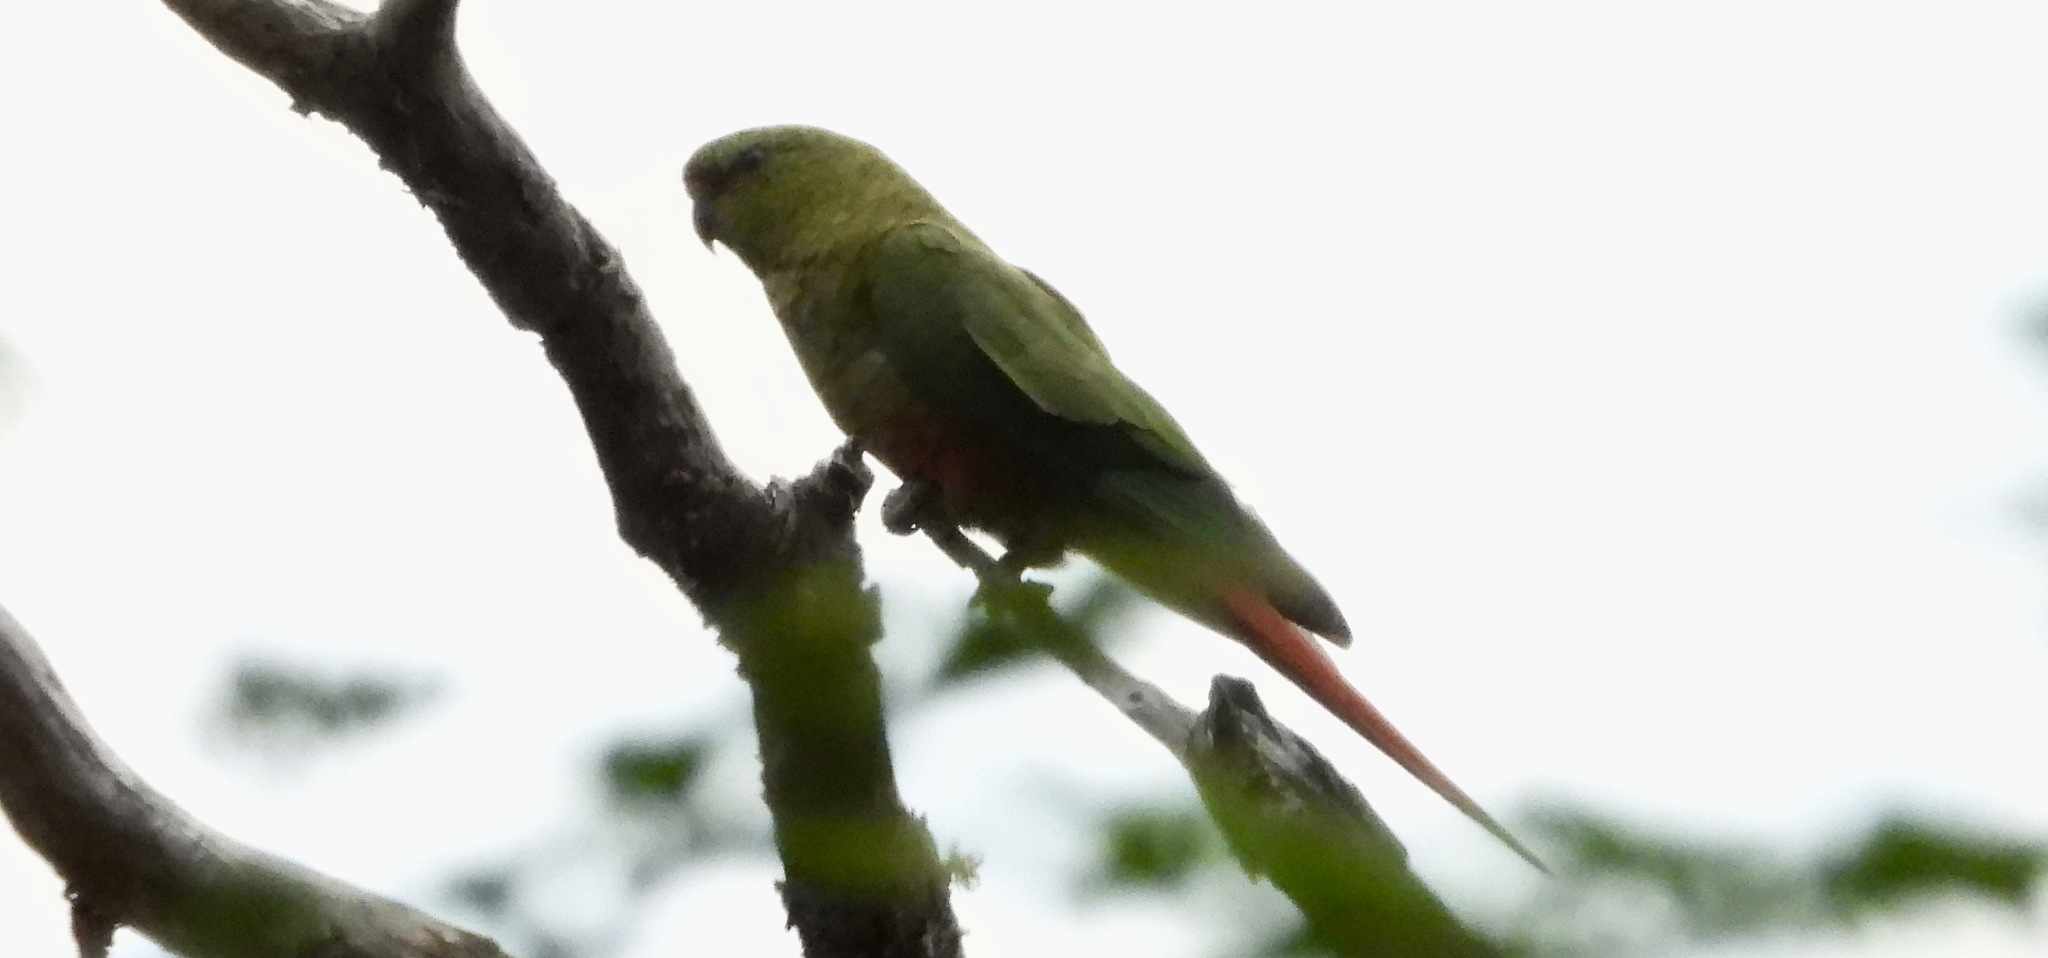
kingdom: Animalia
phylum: Chordata
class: Aves
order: Psittaciformes
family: Psittacidae
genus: Enicognathus
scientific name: Enicognathus ferrugineus
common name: Austral parakeet
